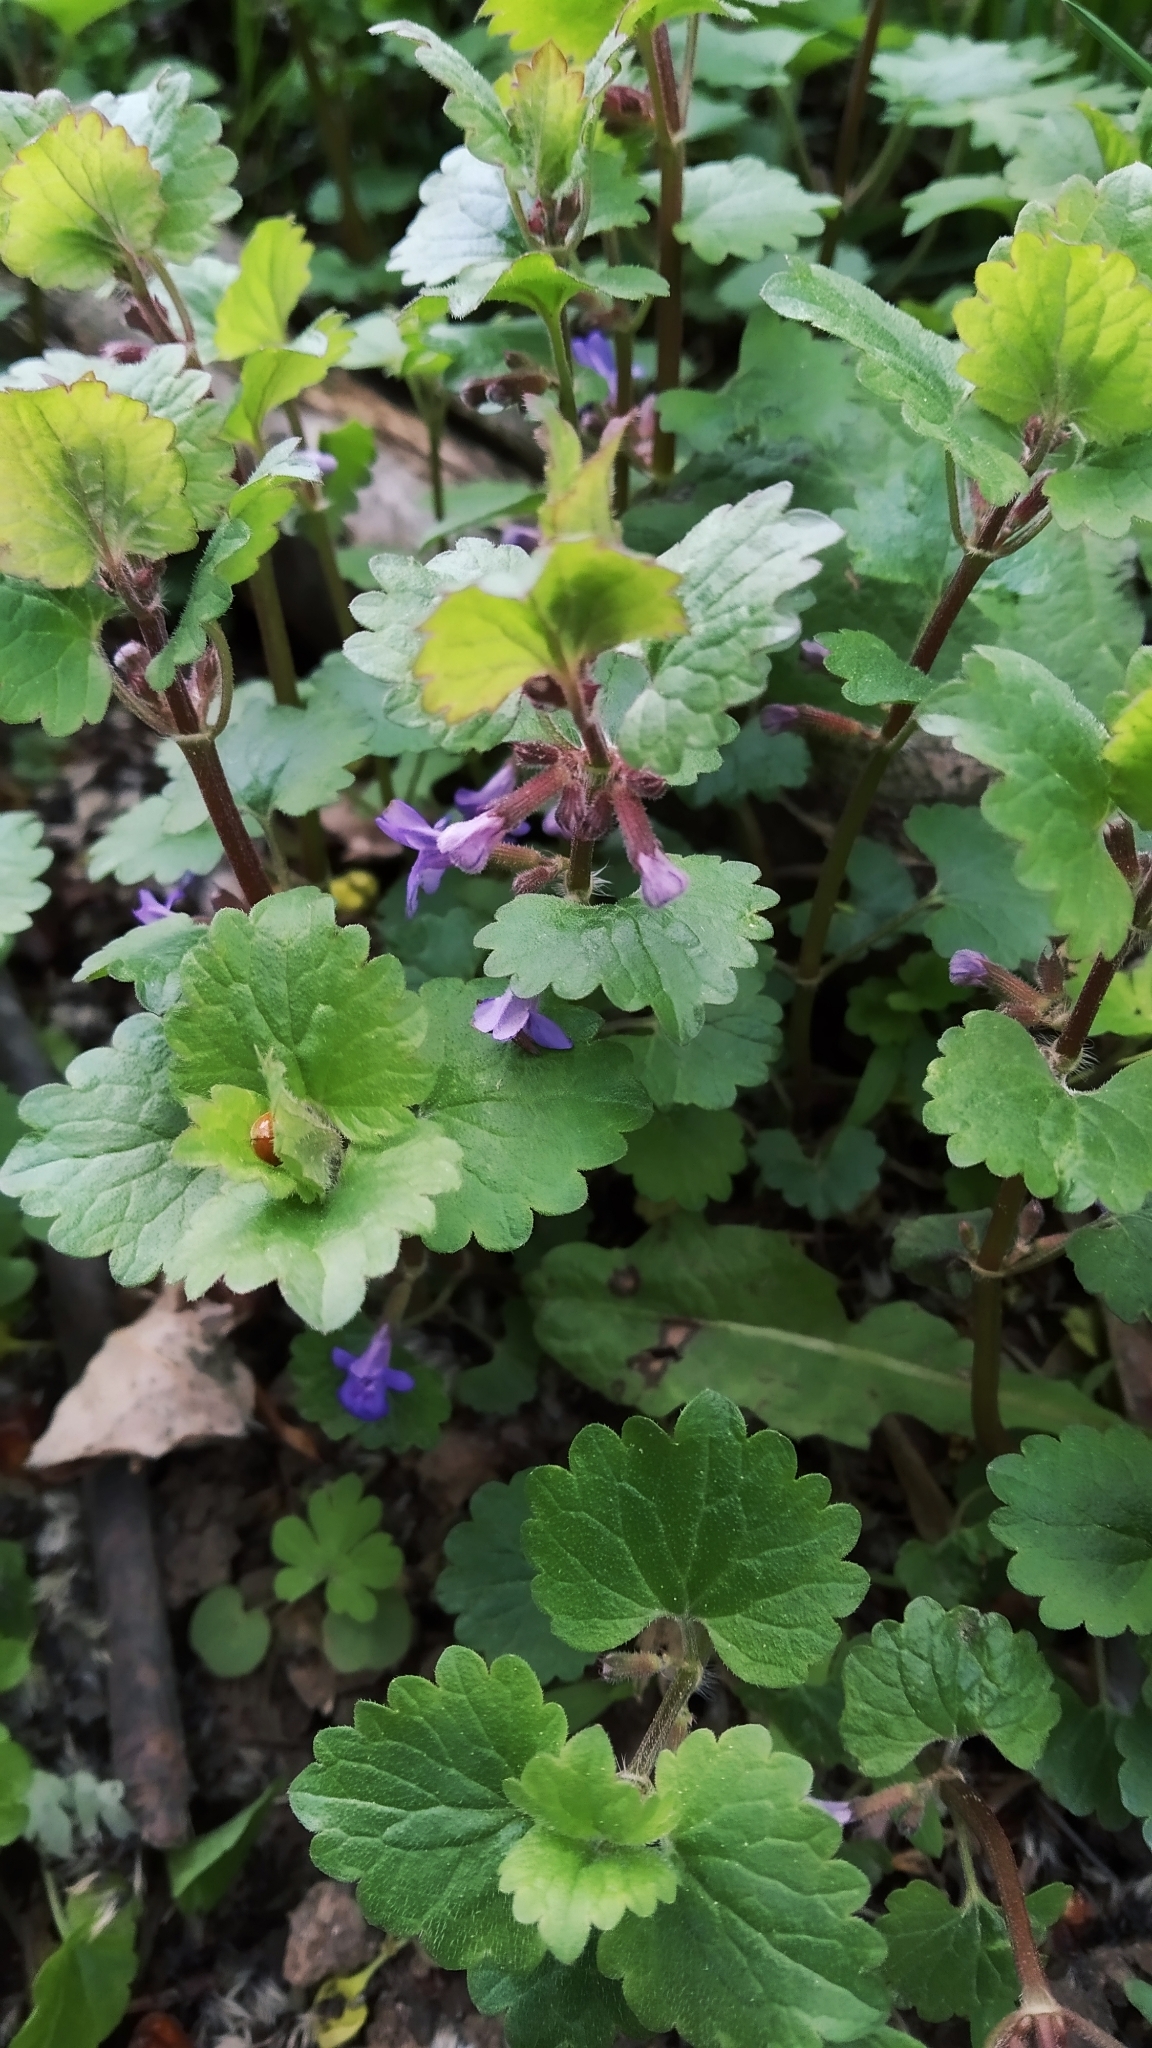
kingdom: Plantae
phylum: Tracheophyta
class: Magnoliopsida
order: Lamiales
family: Lamiaceae
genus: Glechoma
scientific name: Glechoma hederacea
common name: Ground ivy
